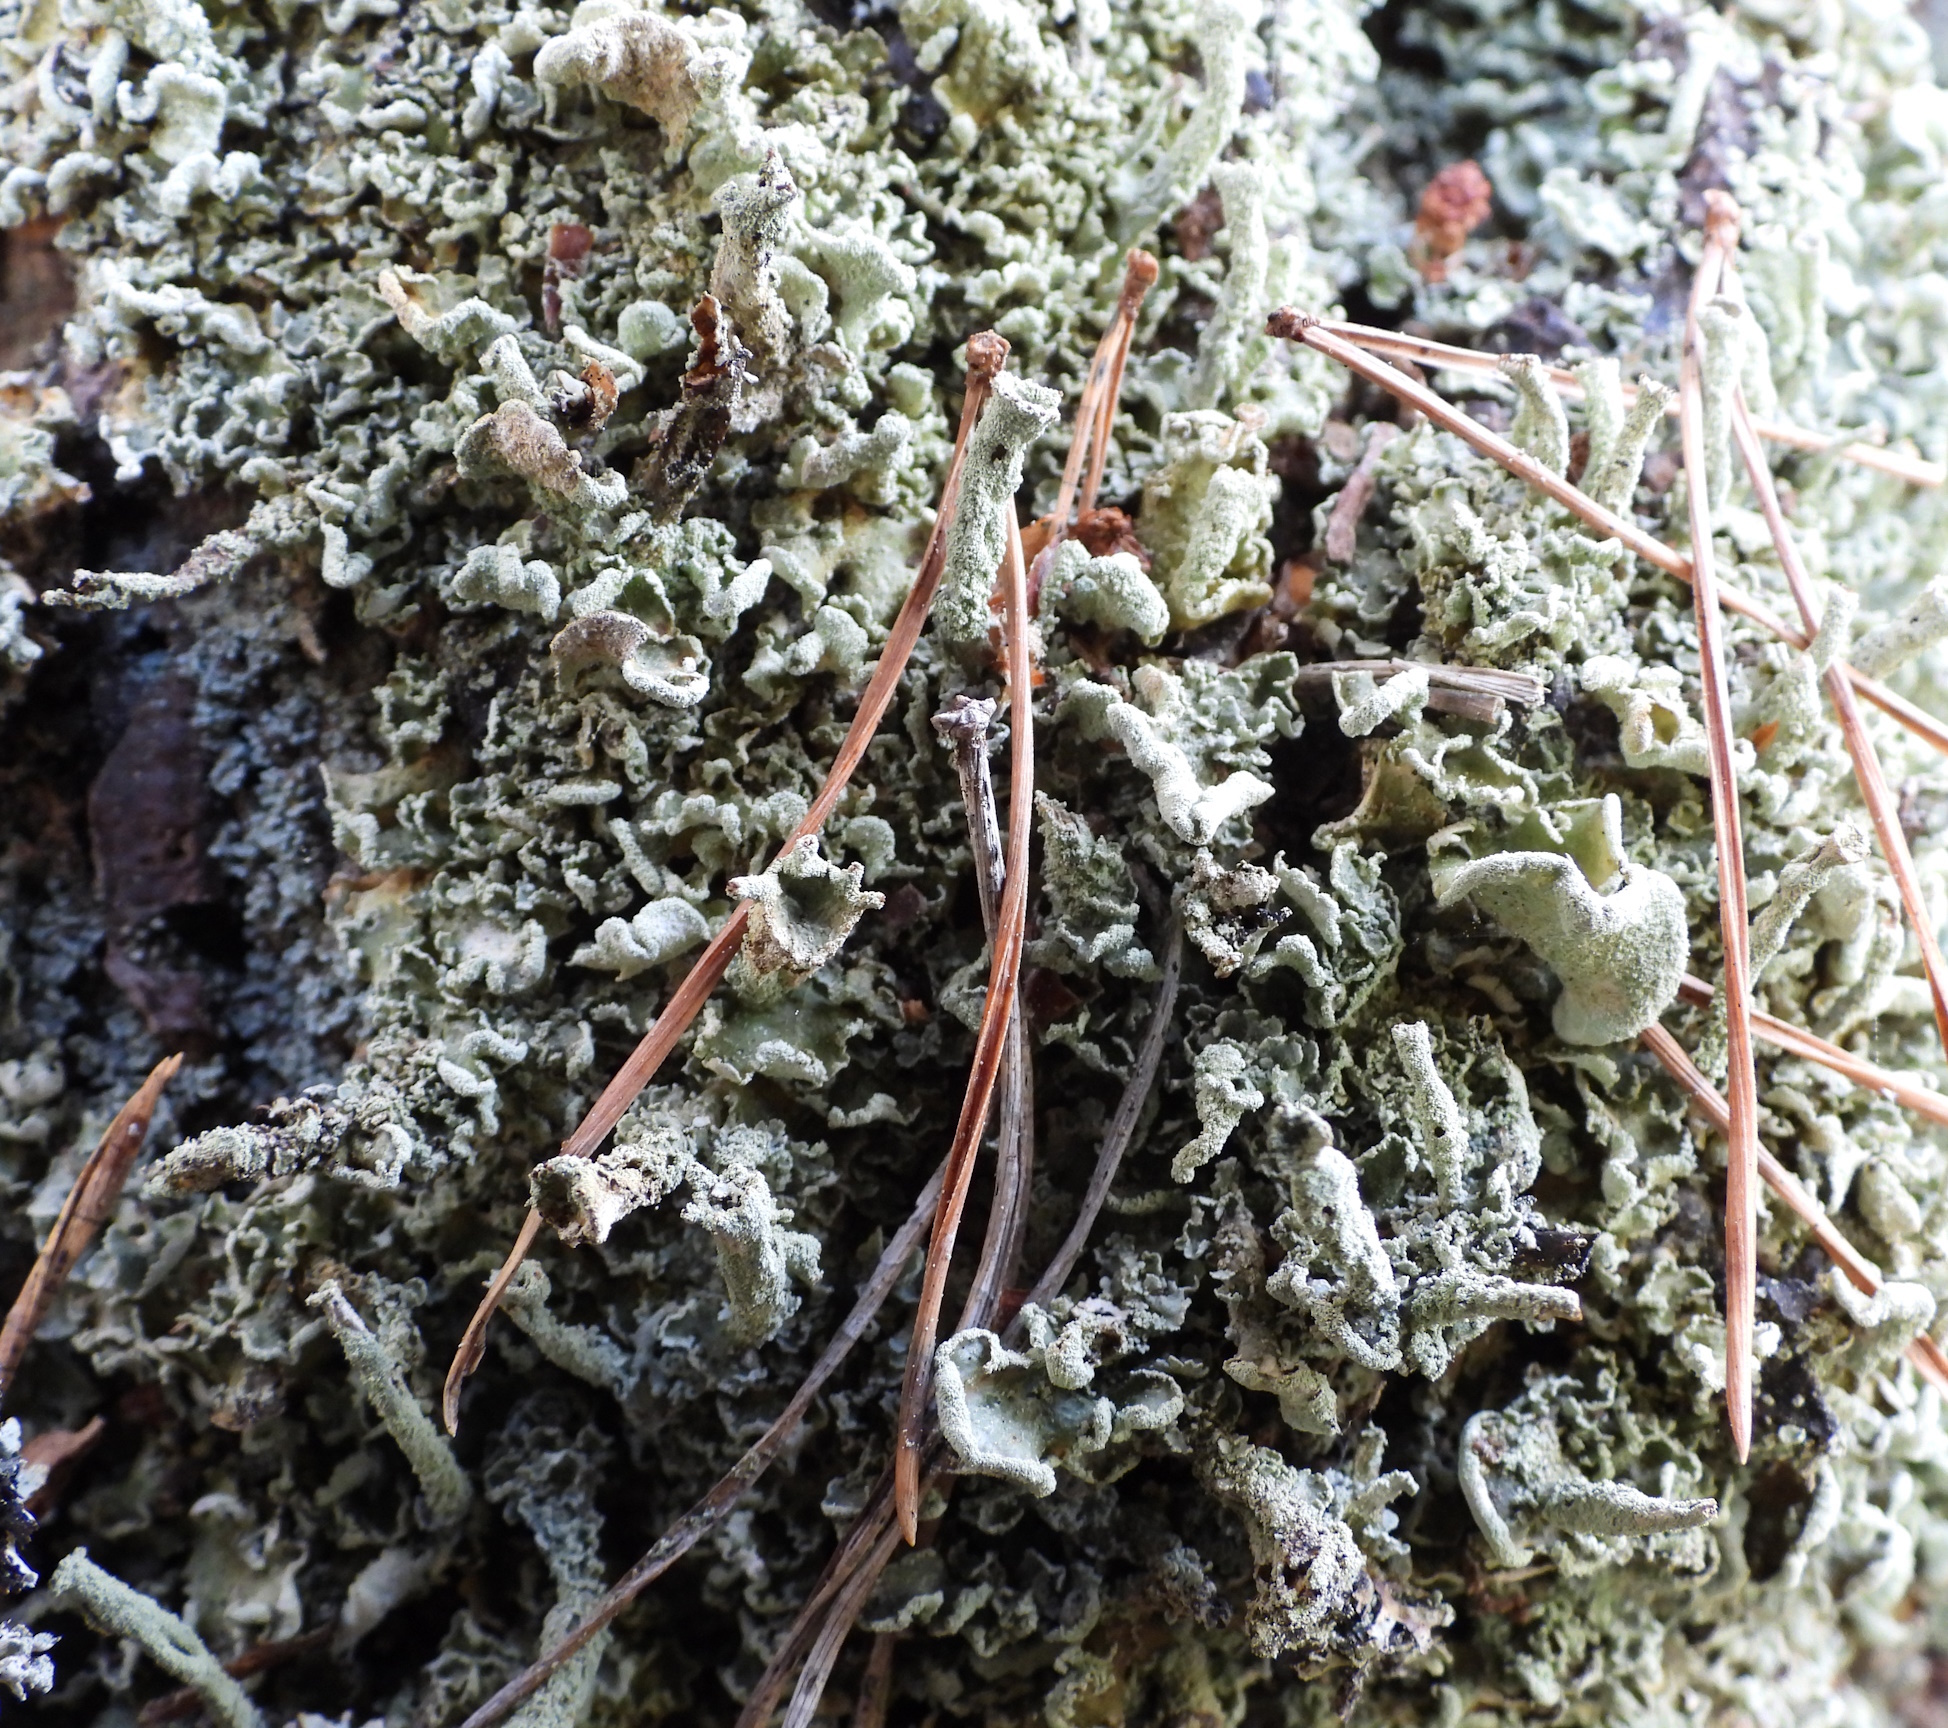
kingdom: Fungi
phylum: Ascomycota
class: Lecanoromycetes
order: Lecanorales
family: Cladoniaceae
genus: Cladonia
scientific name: Cladonia digitata
